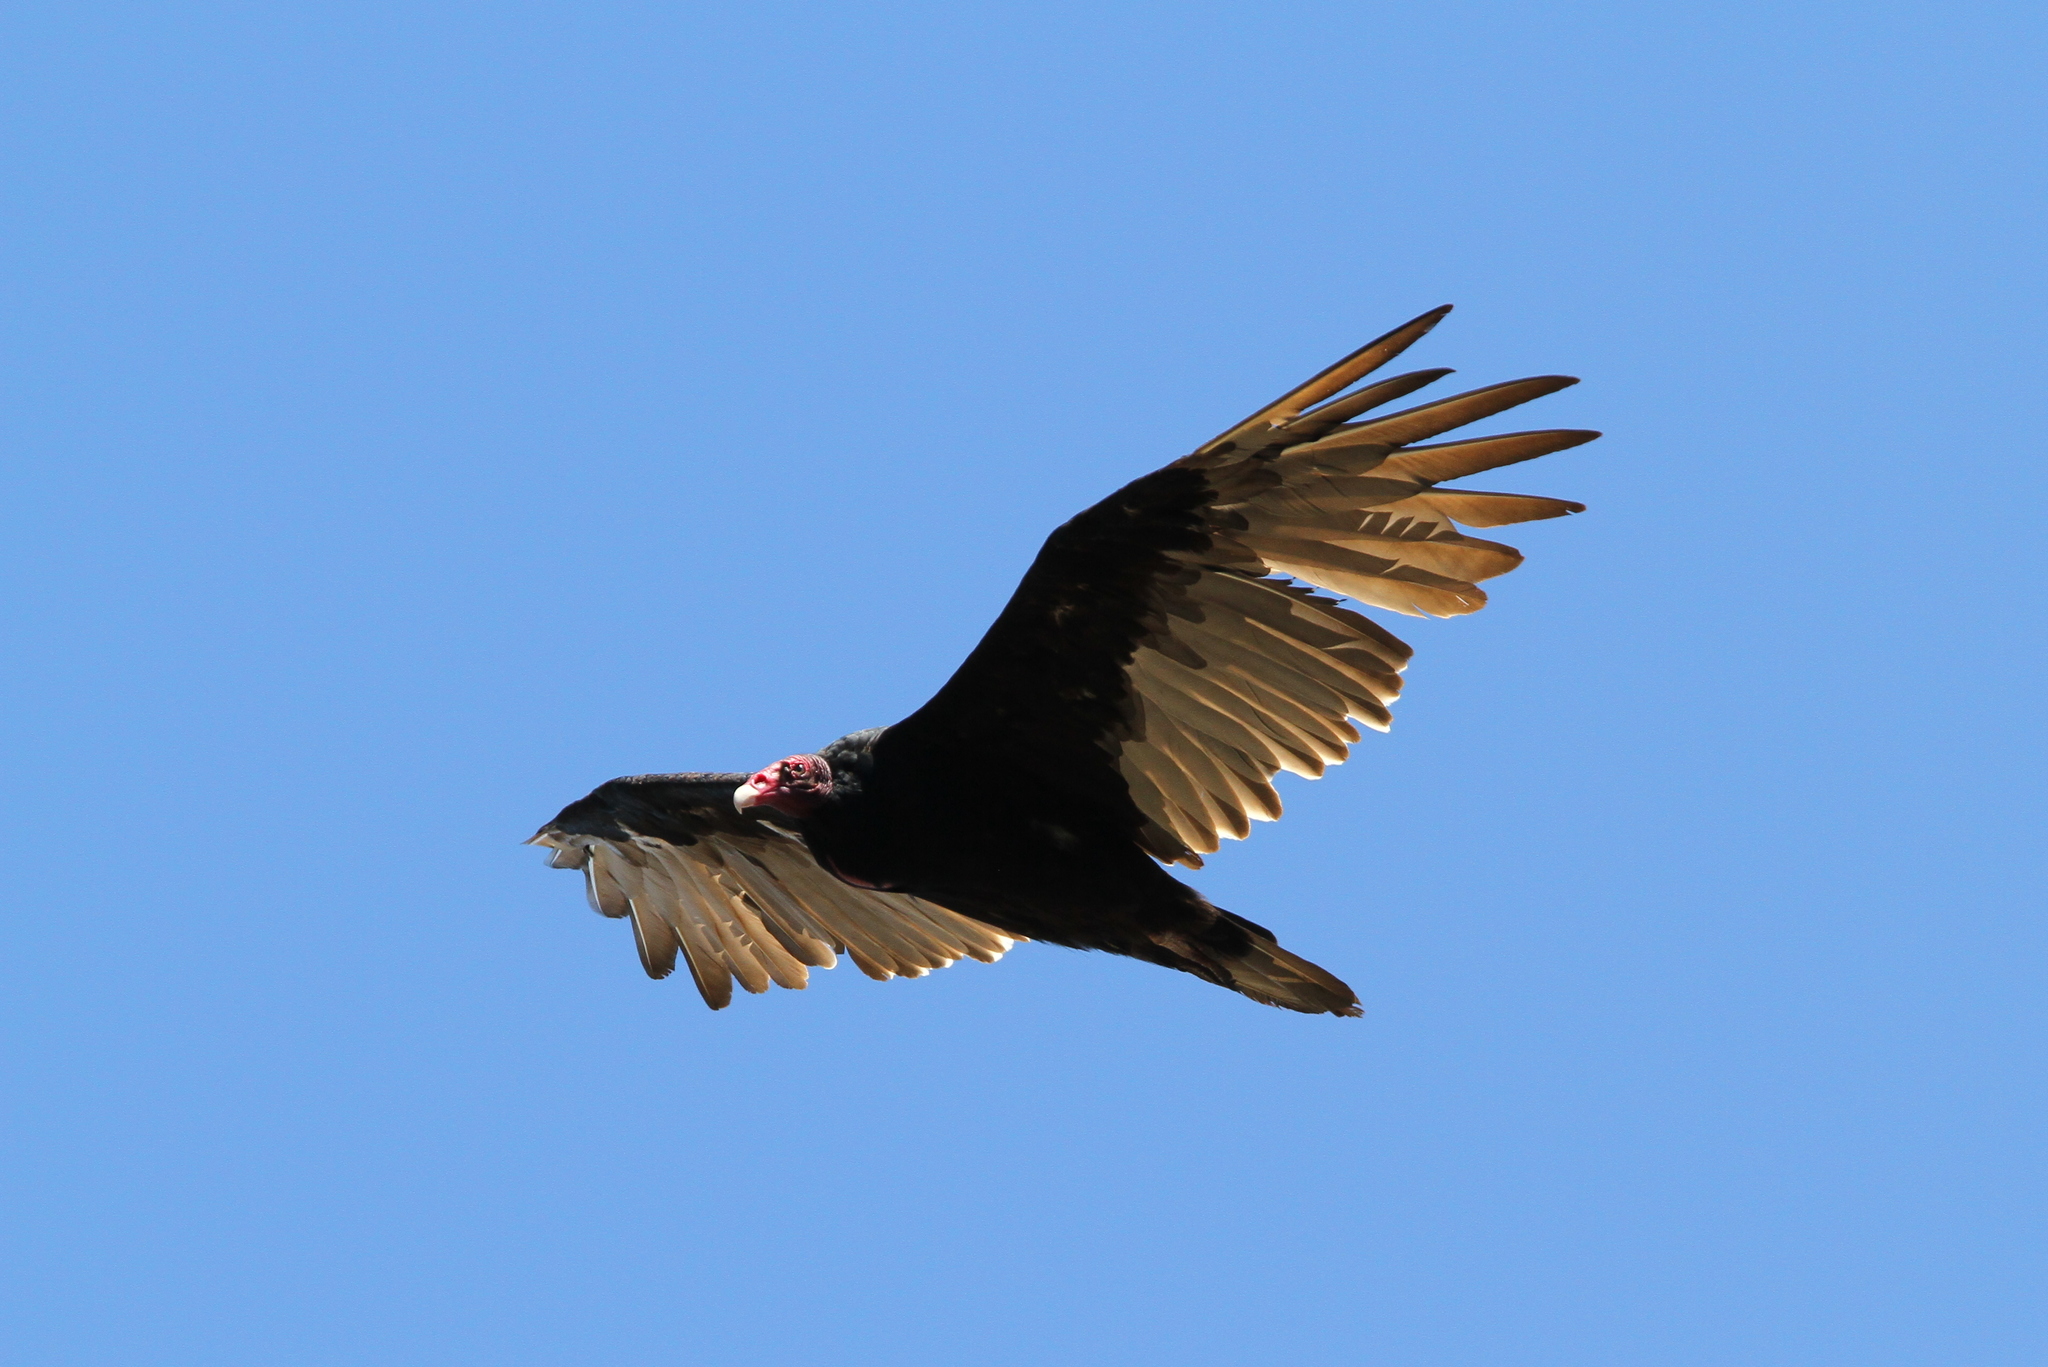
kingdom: Animalia
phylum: Chordata
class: Aves
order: Accipitriformes
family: Cathartidae
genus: Cathartes
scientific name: Cathartes aura
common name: Turkey vulture
